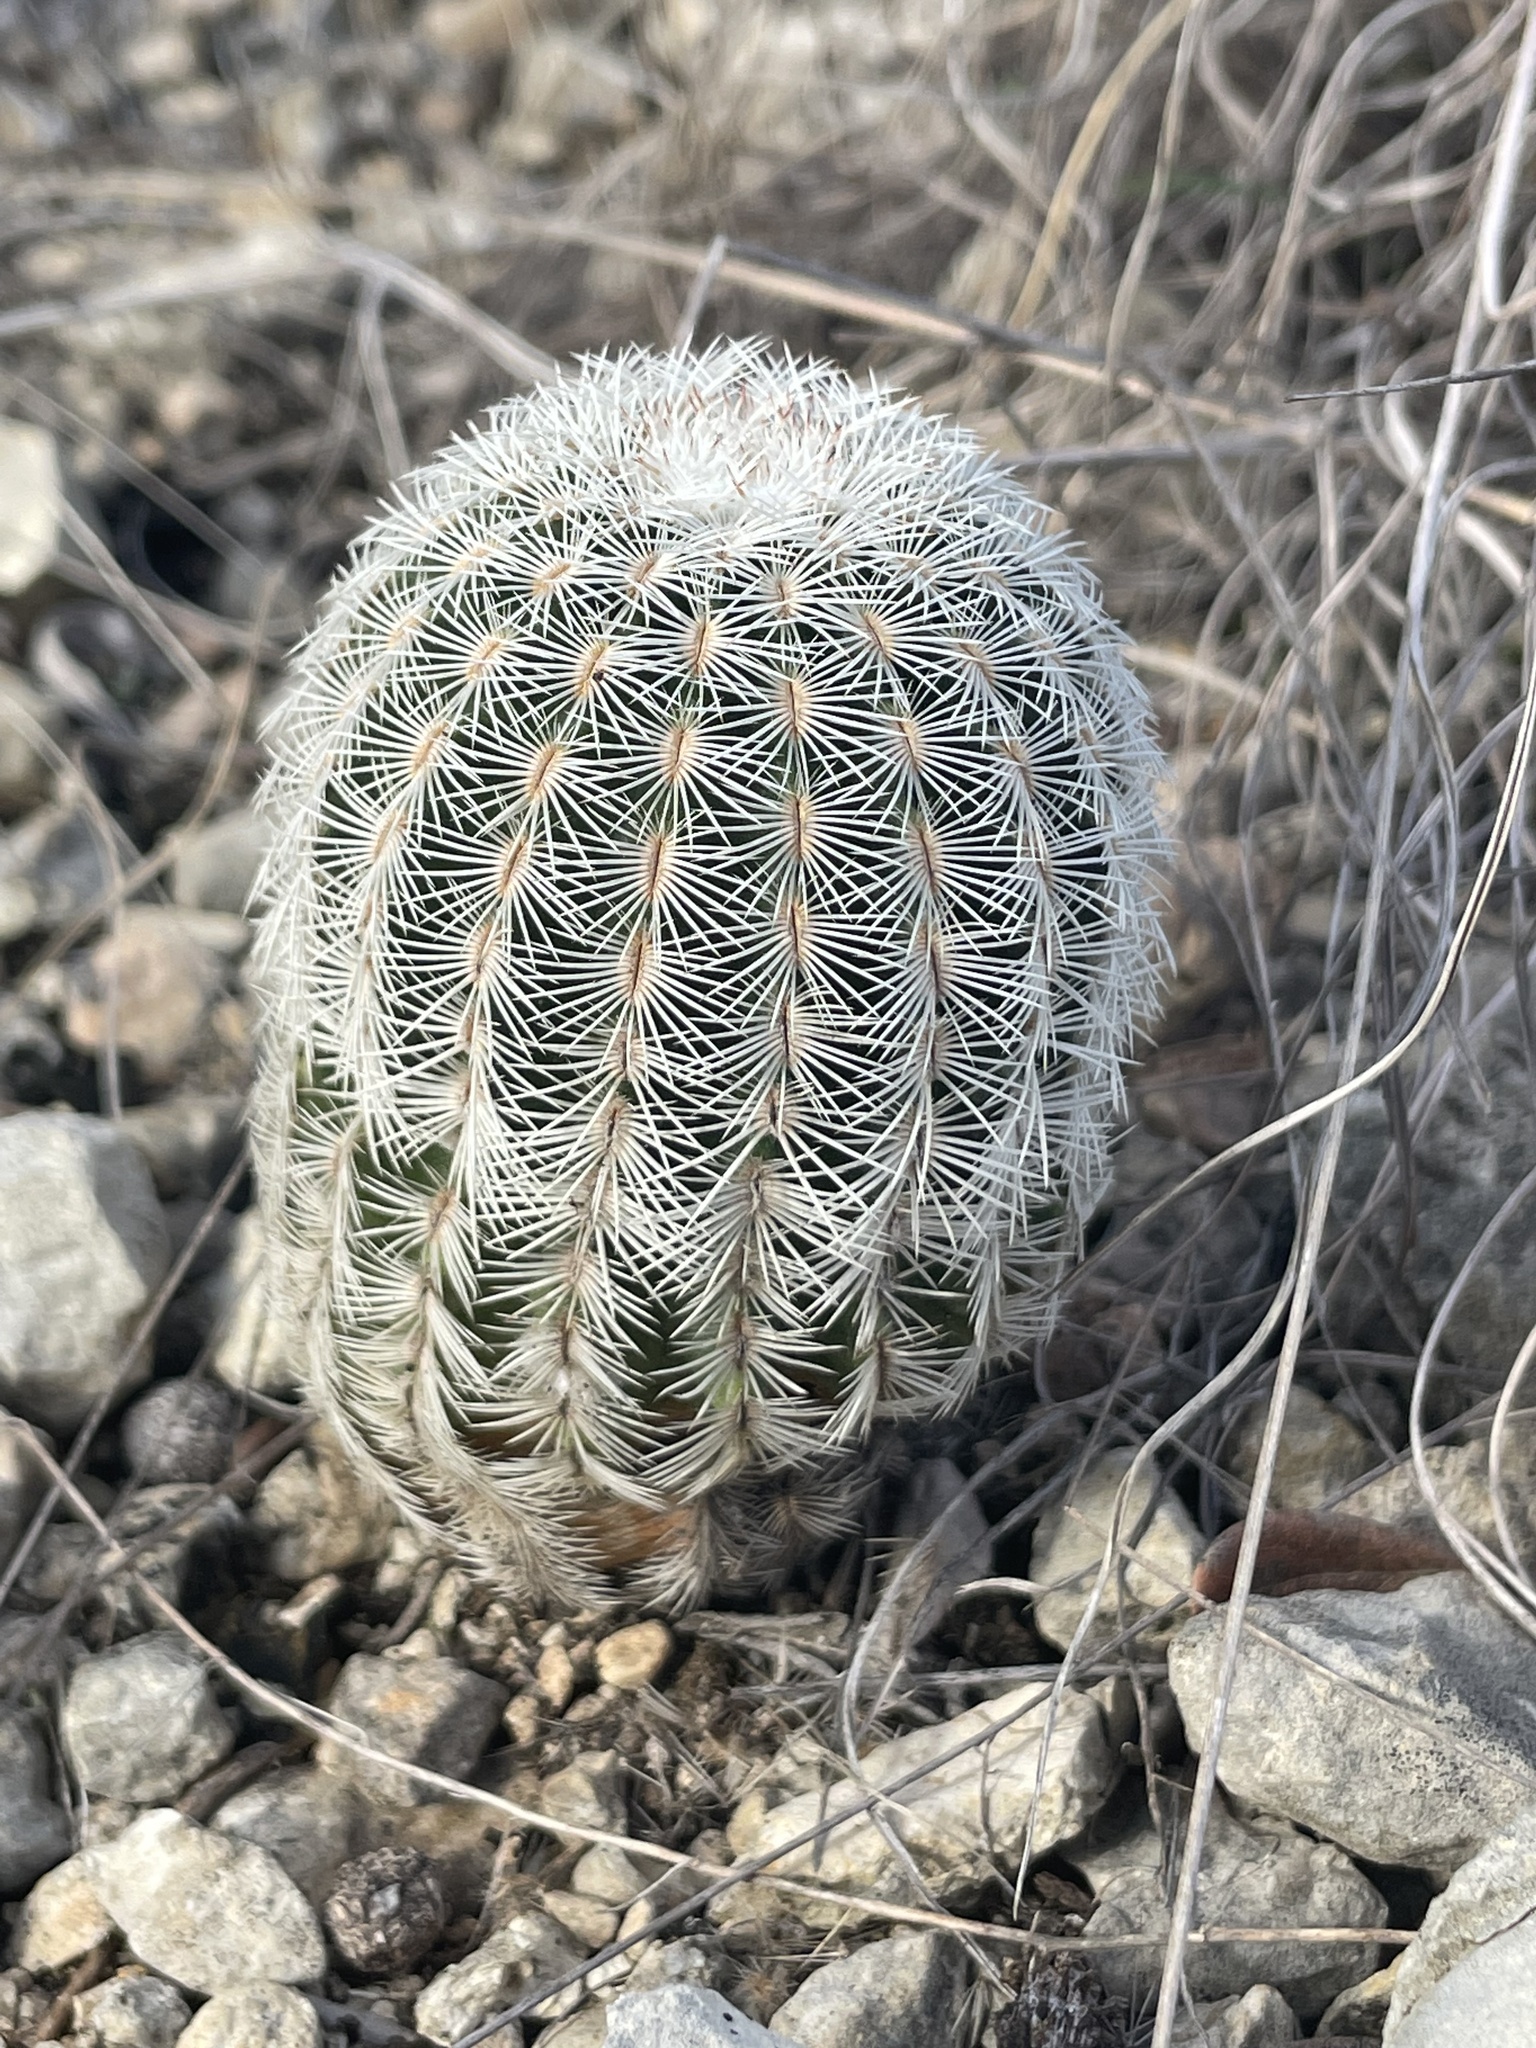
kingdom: Plantae
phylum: Tracheophyta
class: Magnoliopsida
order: Caryophyllales
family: Cactaceae
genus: Echinocereus
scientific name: Echinocereus reichenbachii
